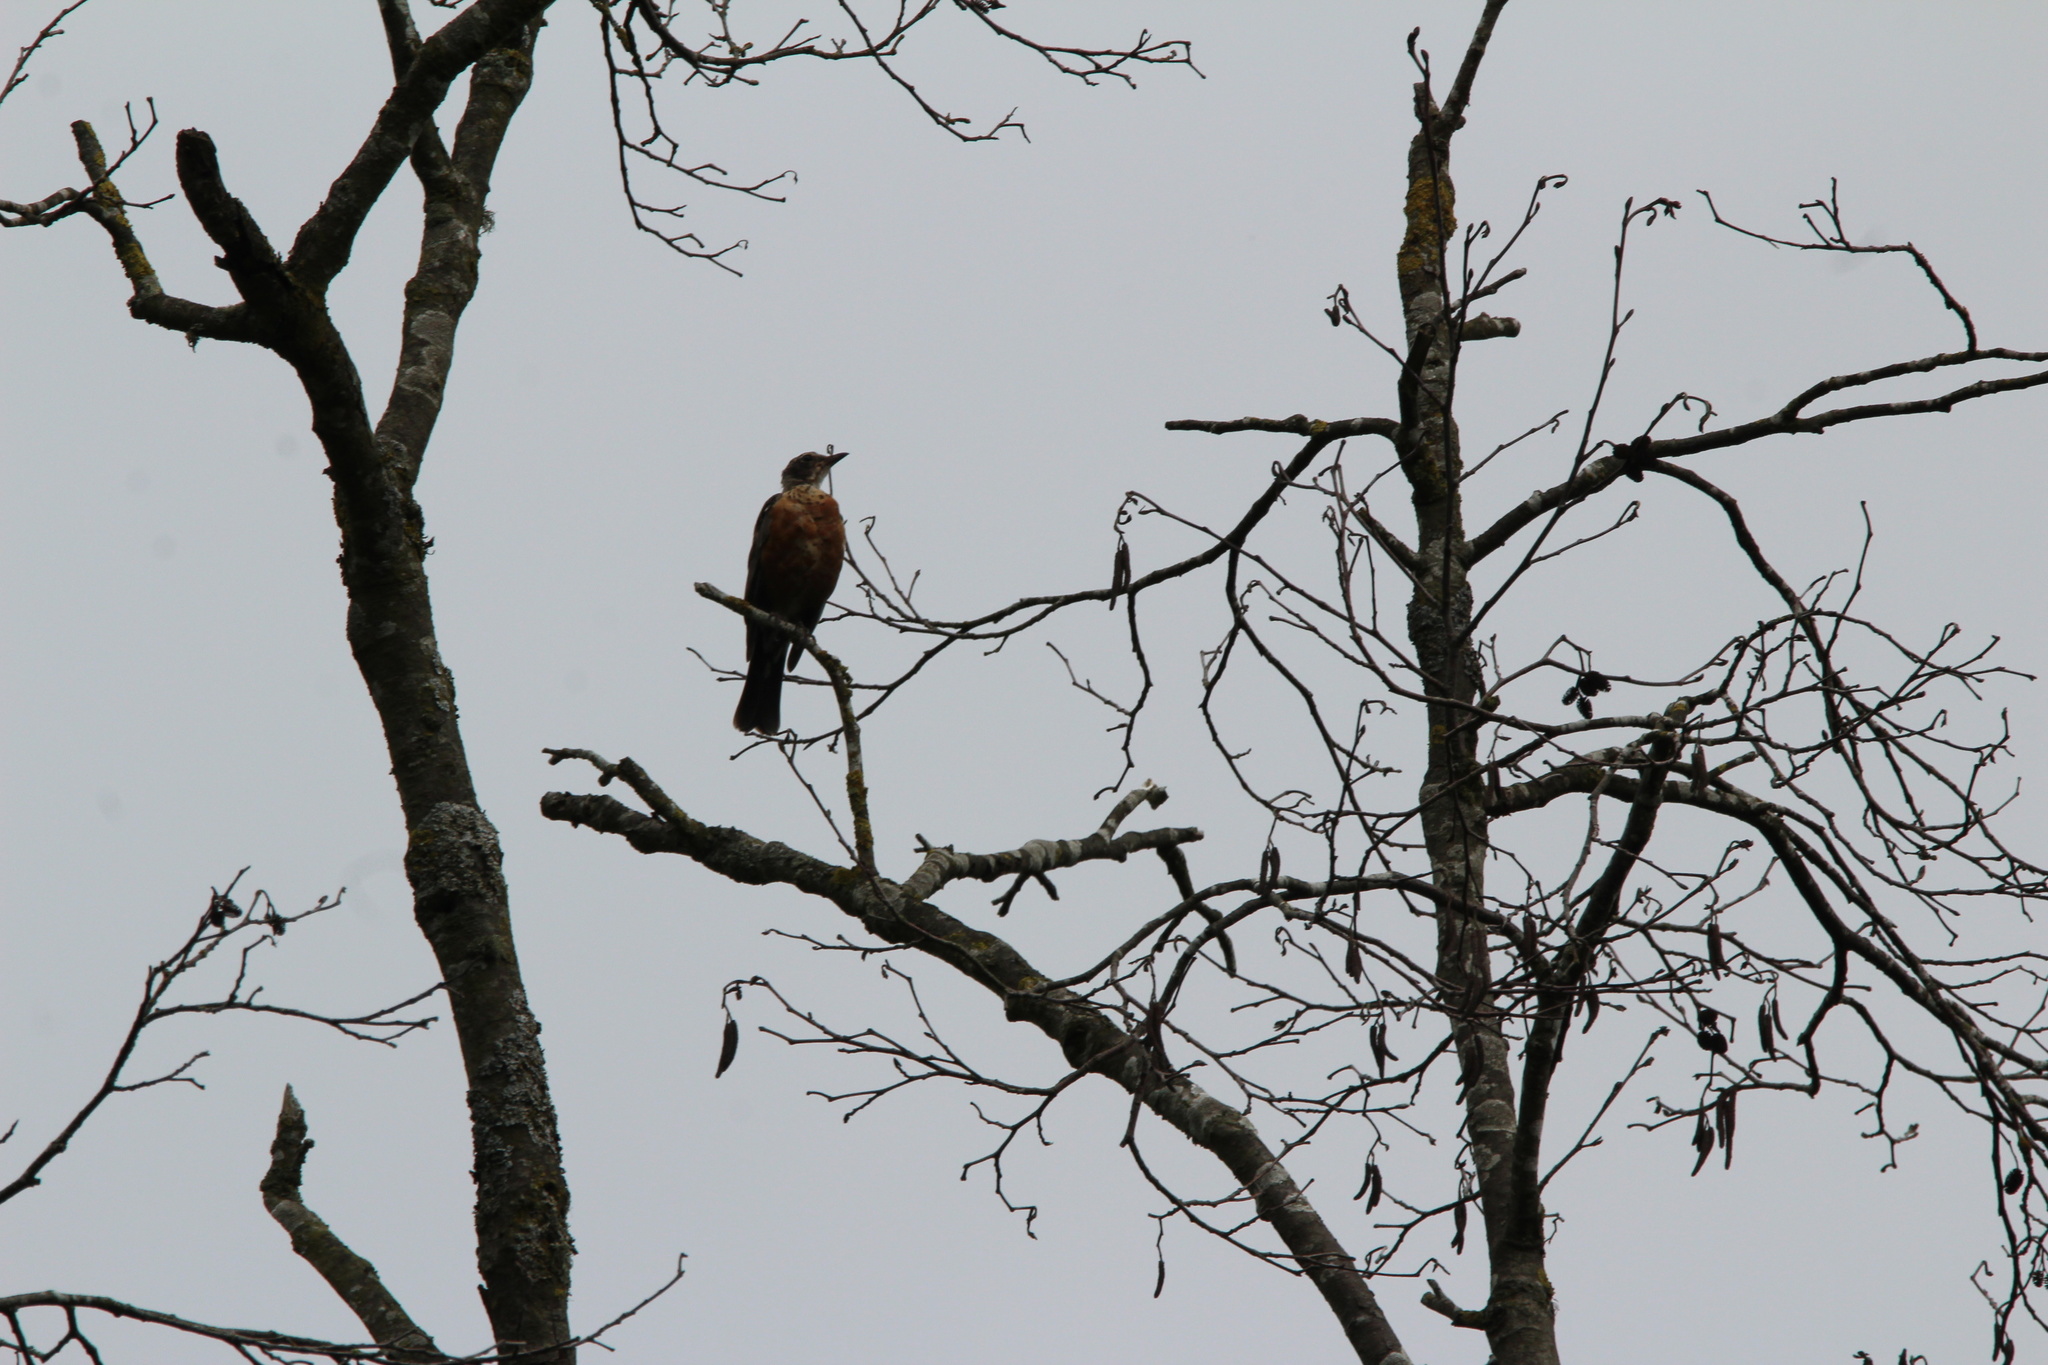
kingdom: Animalia
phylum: Chordata
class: Aves
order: Passeriformes
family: Turdidae
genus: Turdus
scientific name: Turdus migratorius
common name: American robin
